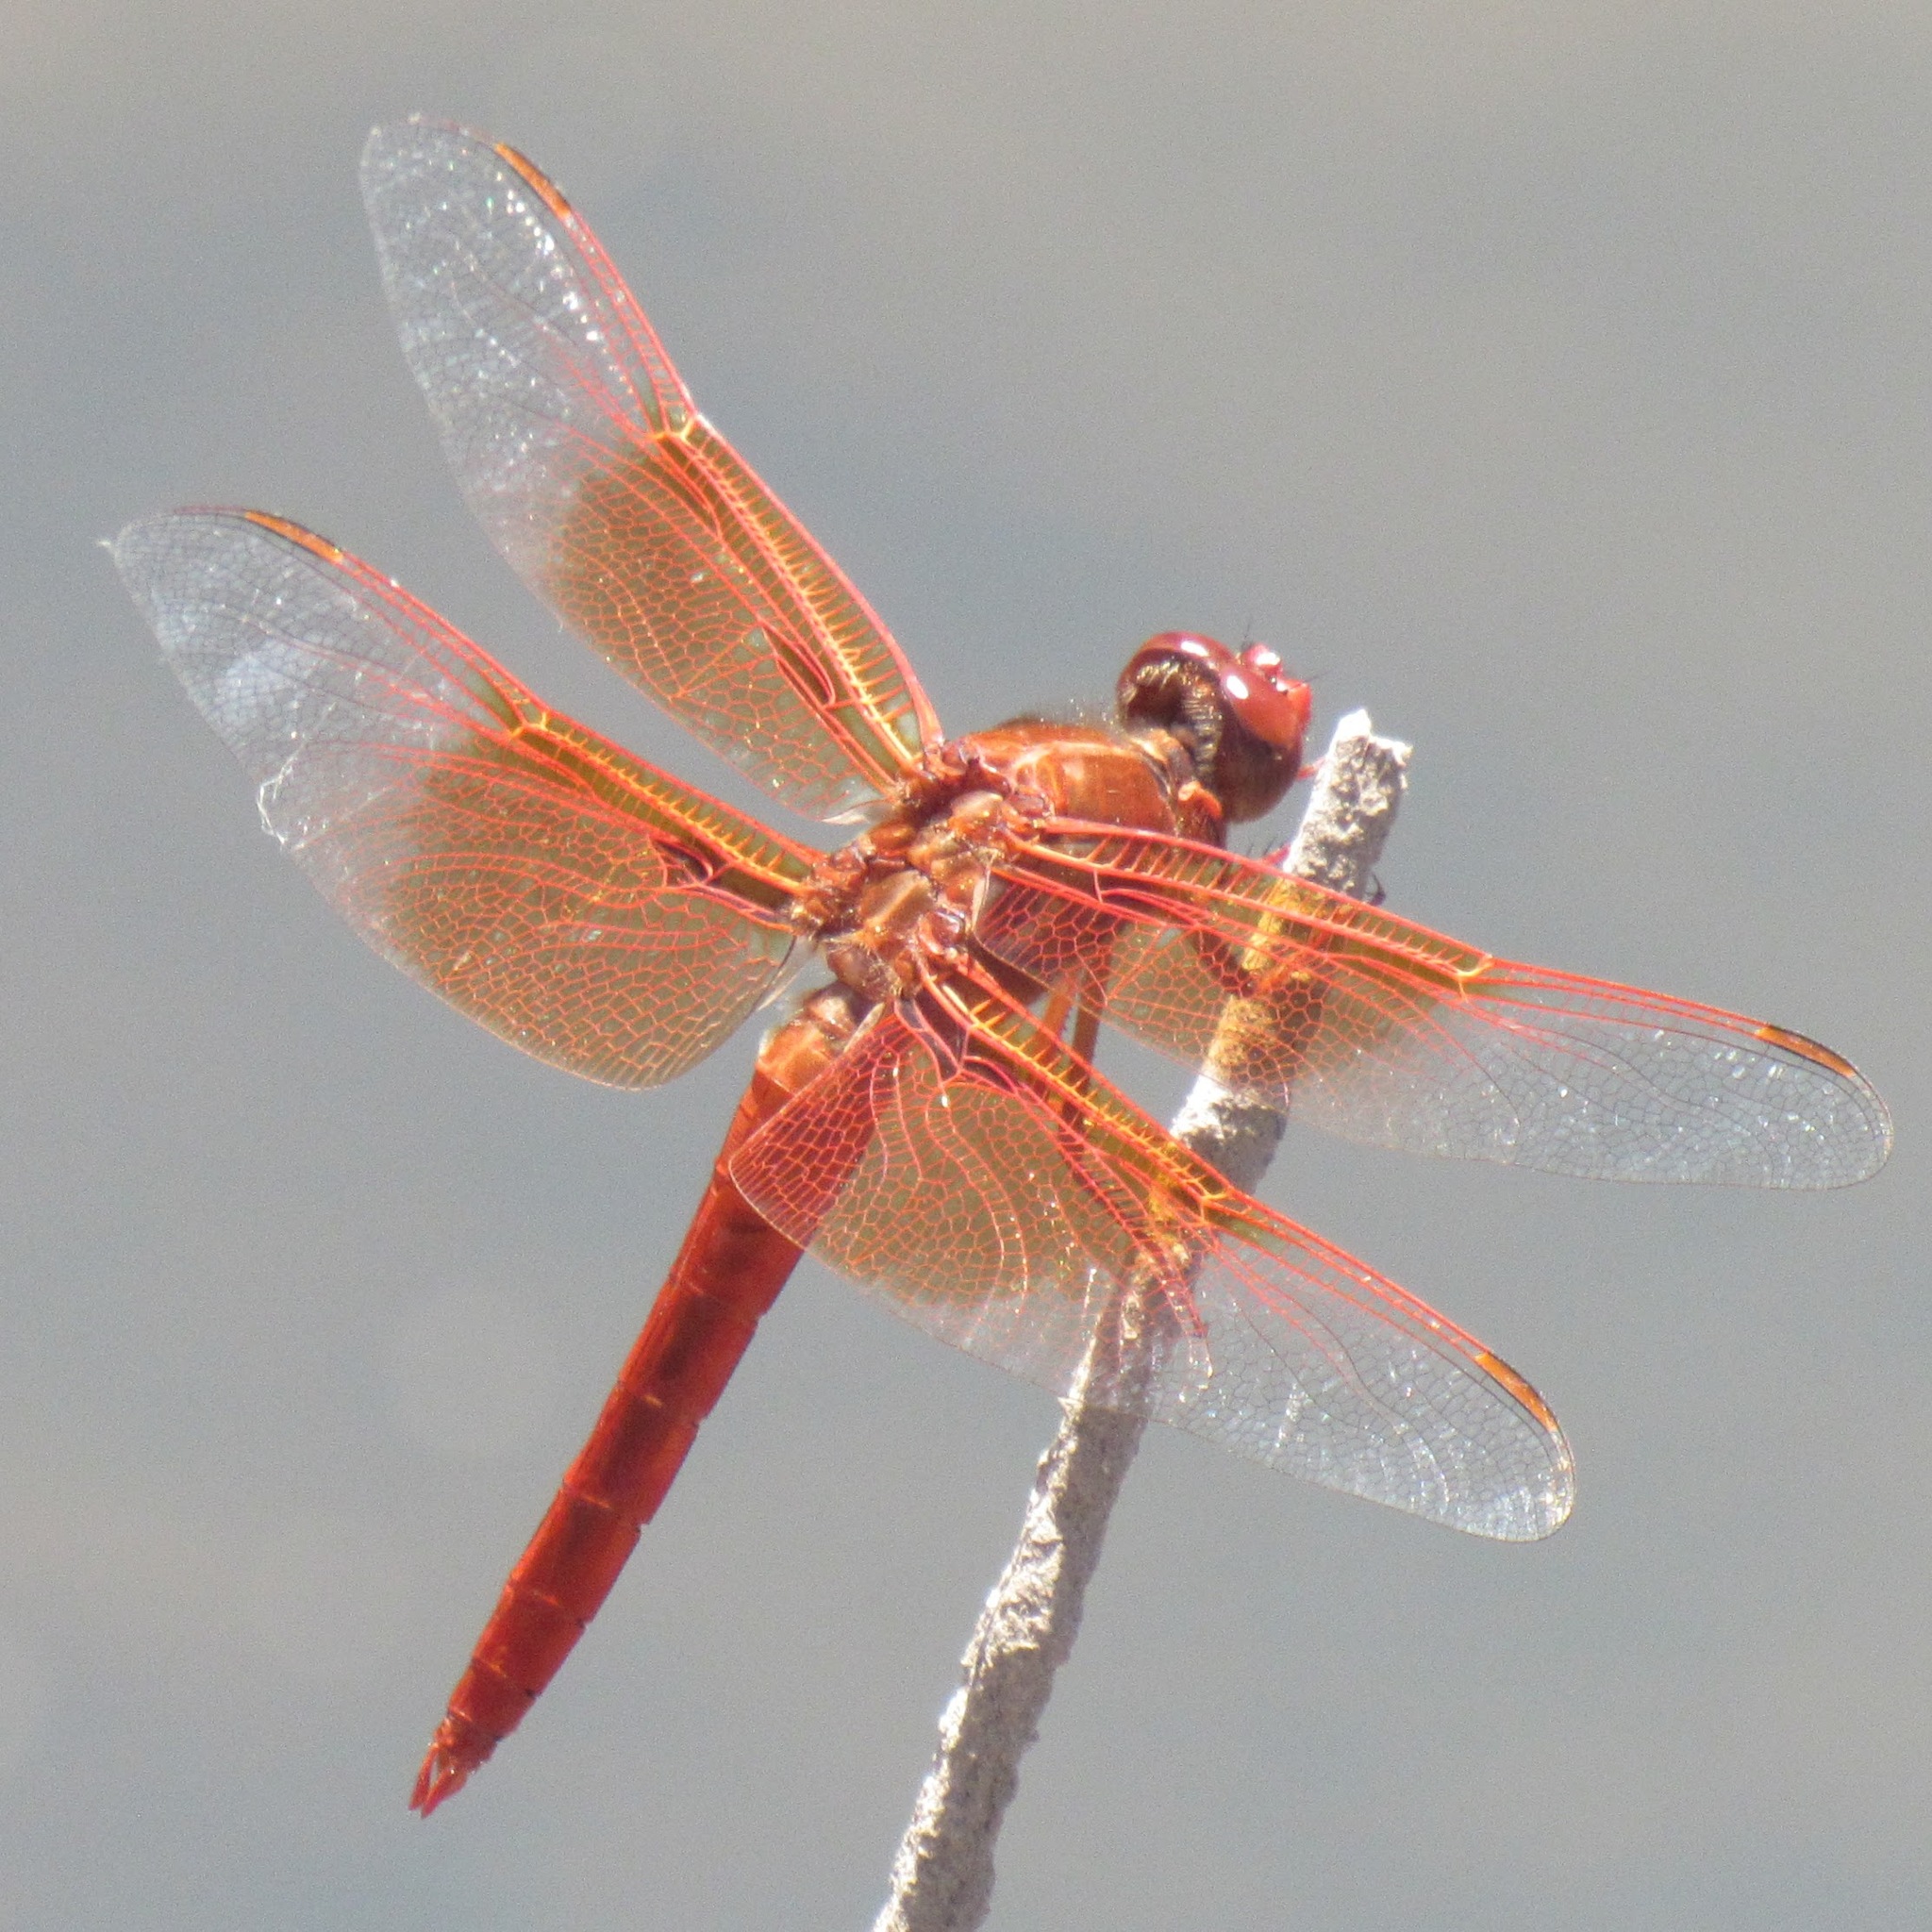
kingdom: Animalia
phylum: Arthropoda
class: Insecta
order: Odonata
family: Libellulidae
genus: Libellula
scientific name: Libellula saturata
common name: Flame skimmer
